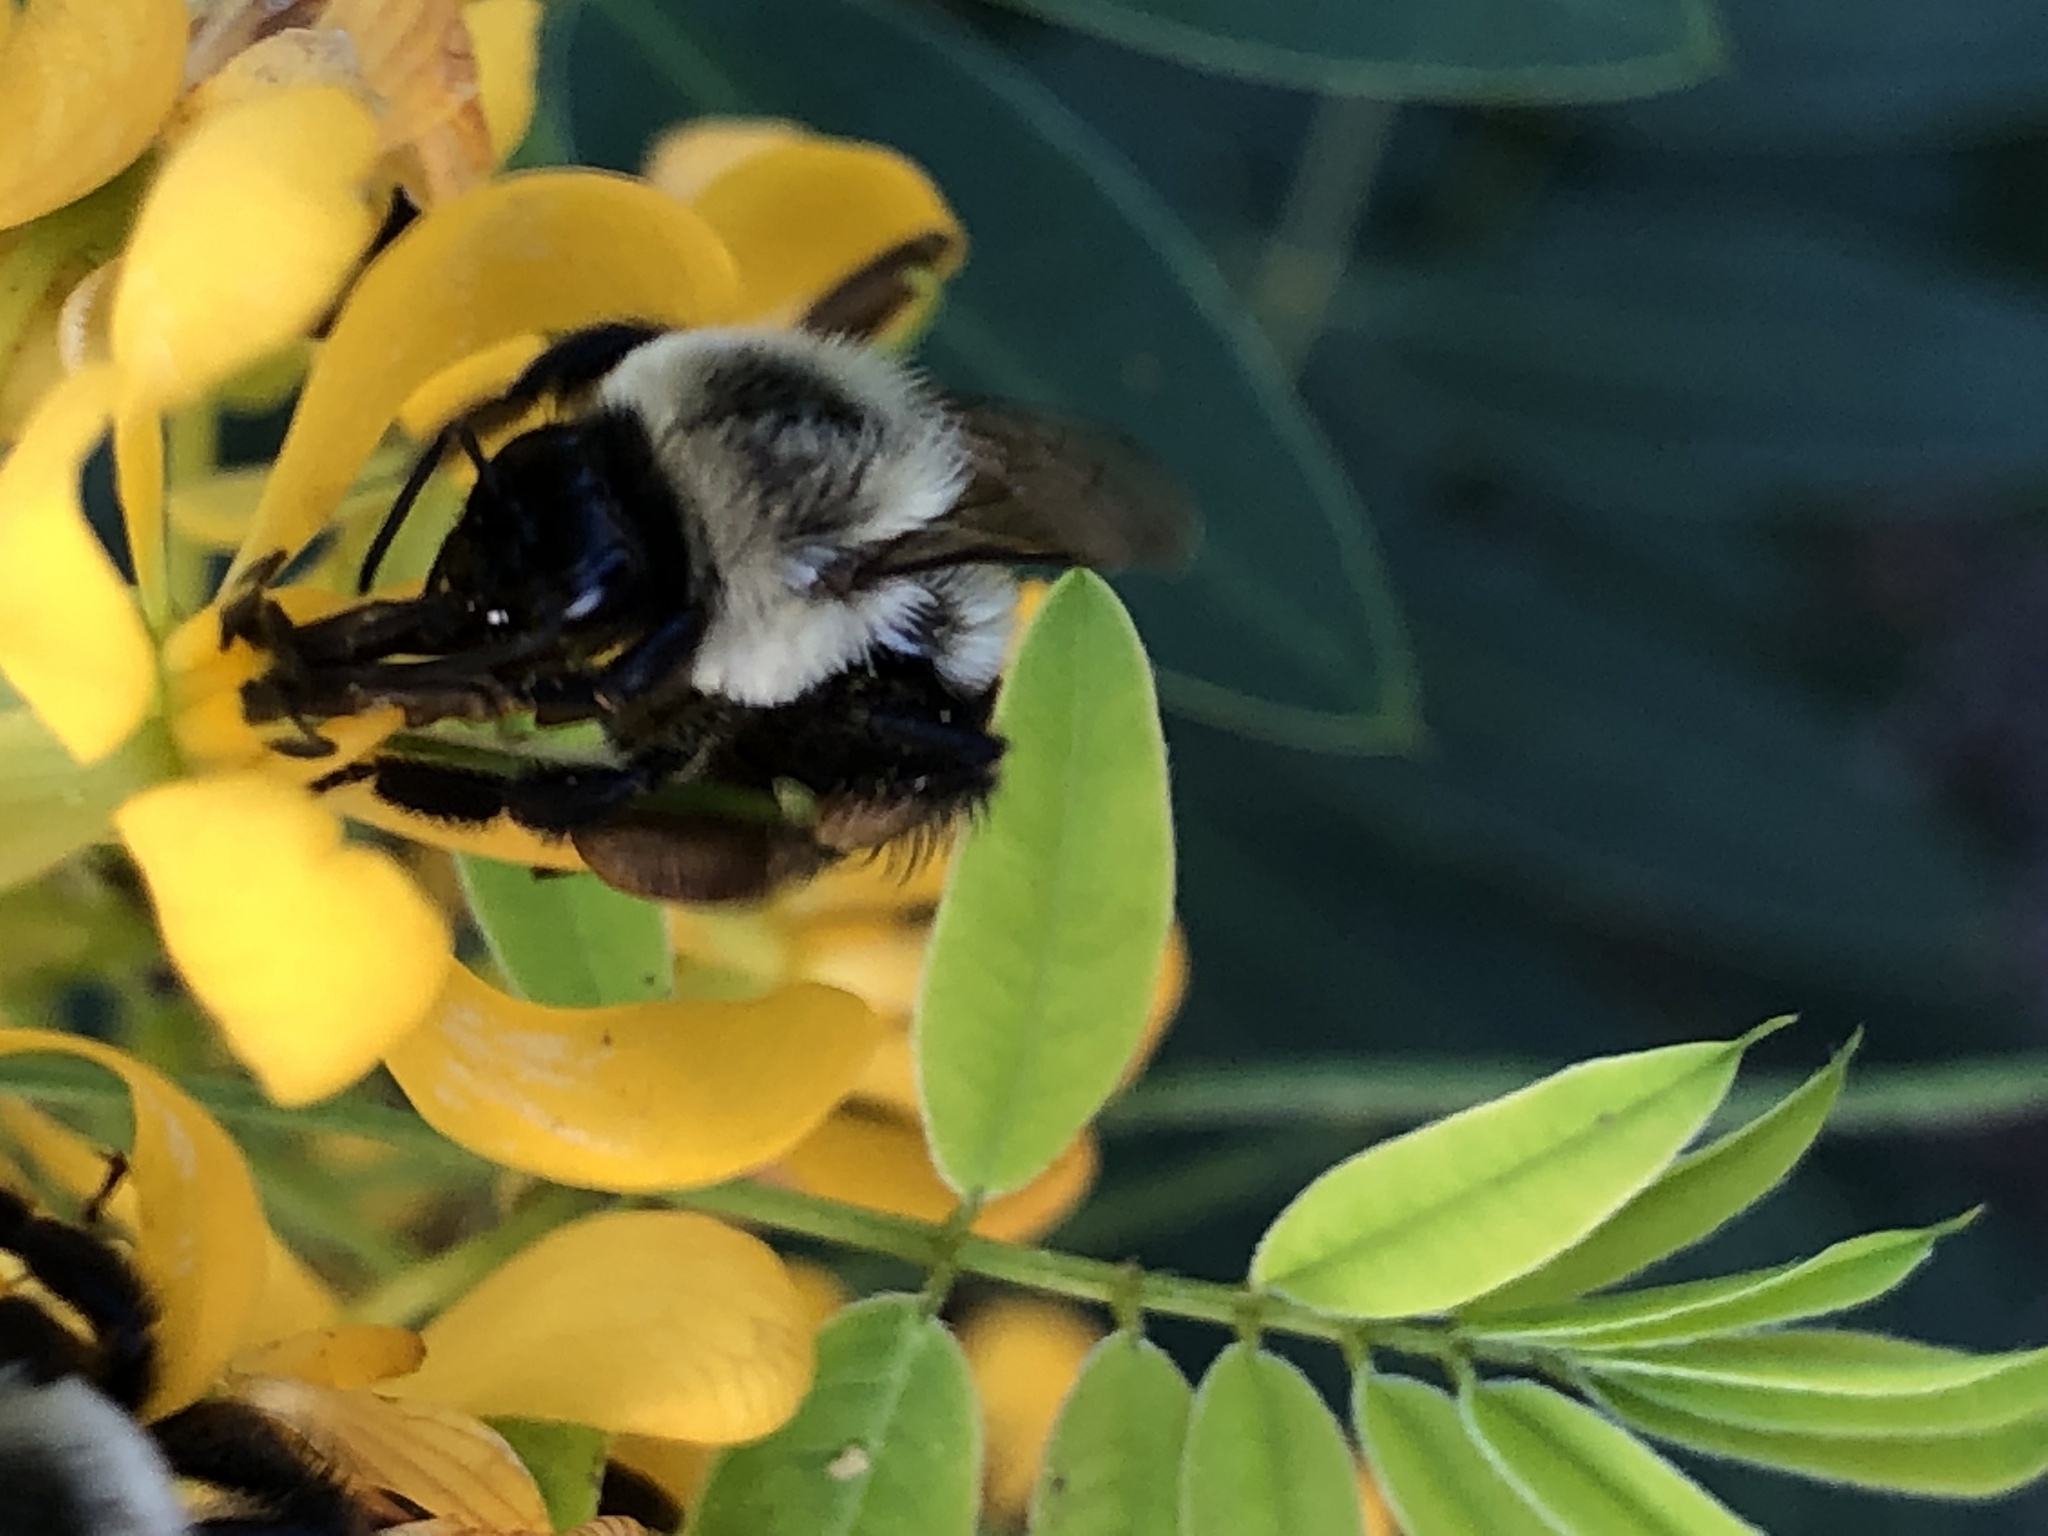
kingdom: Animalia
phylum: Arthropoda
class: Insecta
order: Hymenoptera
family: Apidae
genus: Bombus
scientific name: Bombus impatiens
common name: Common eastern bumble bee
